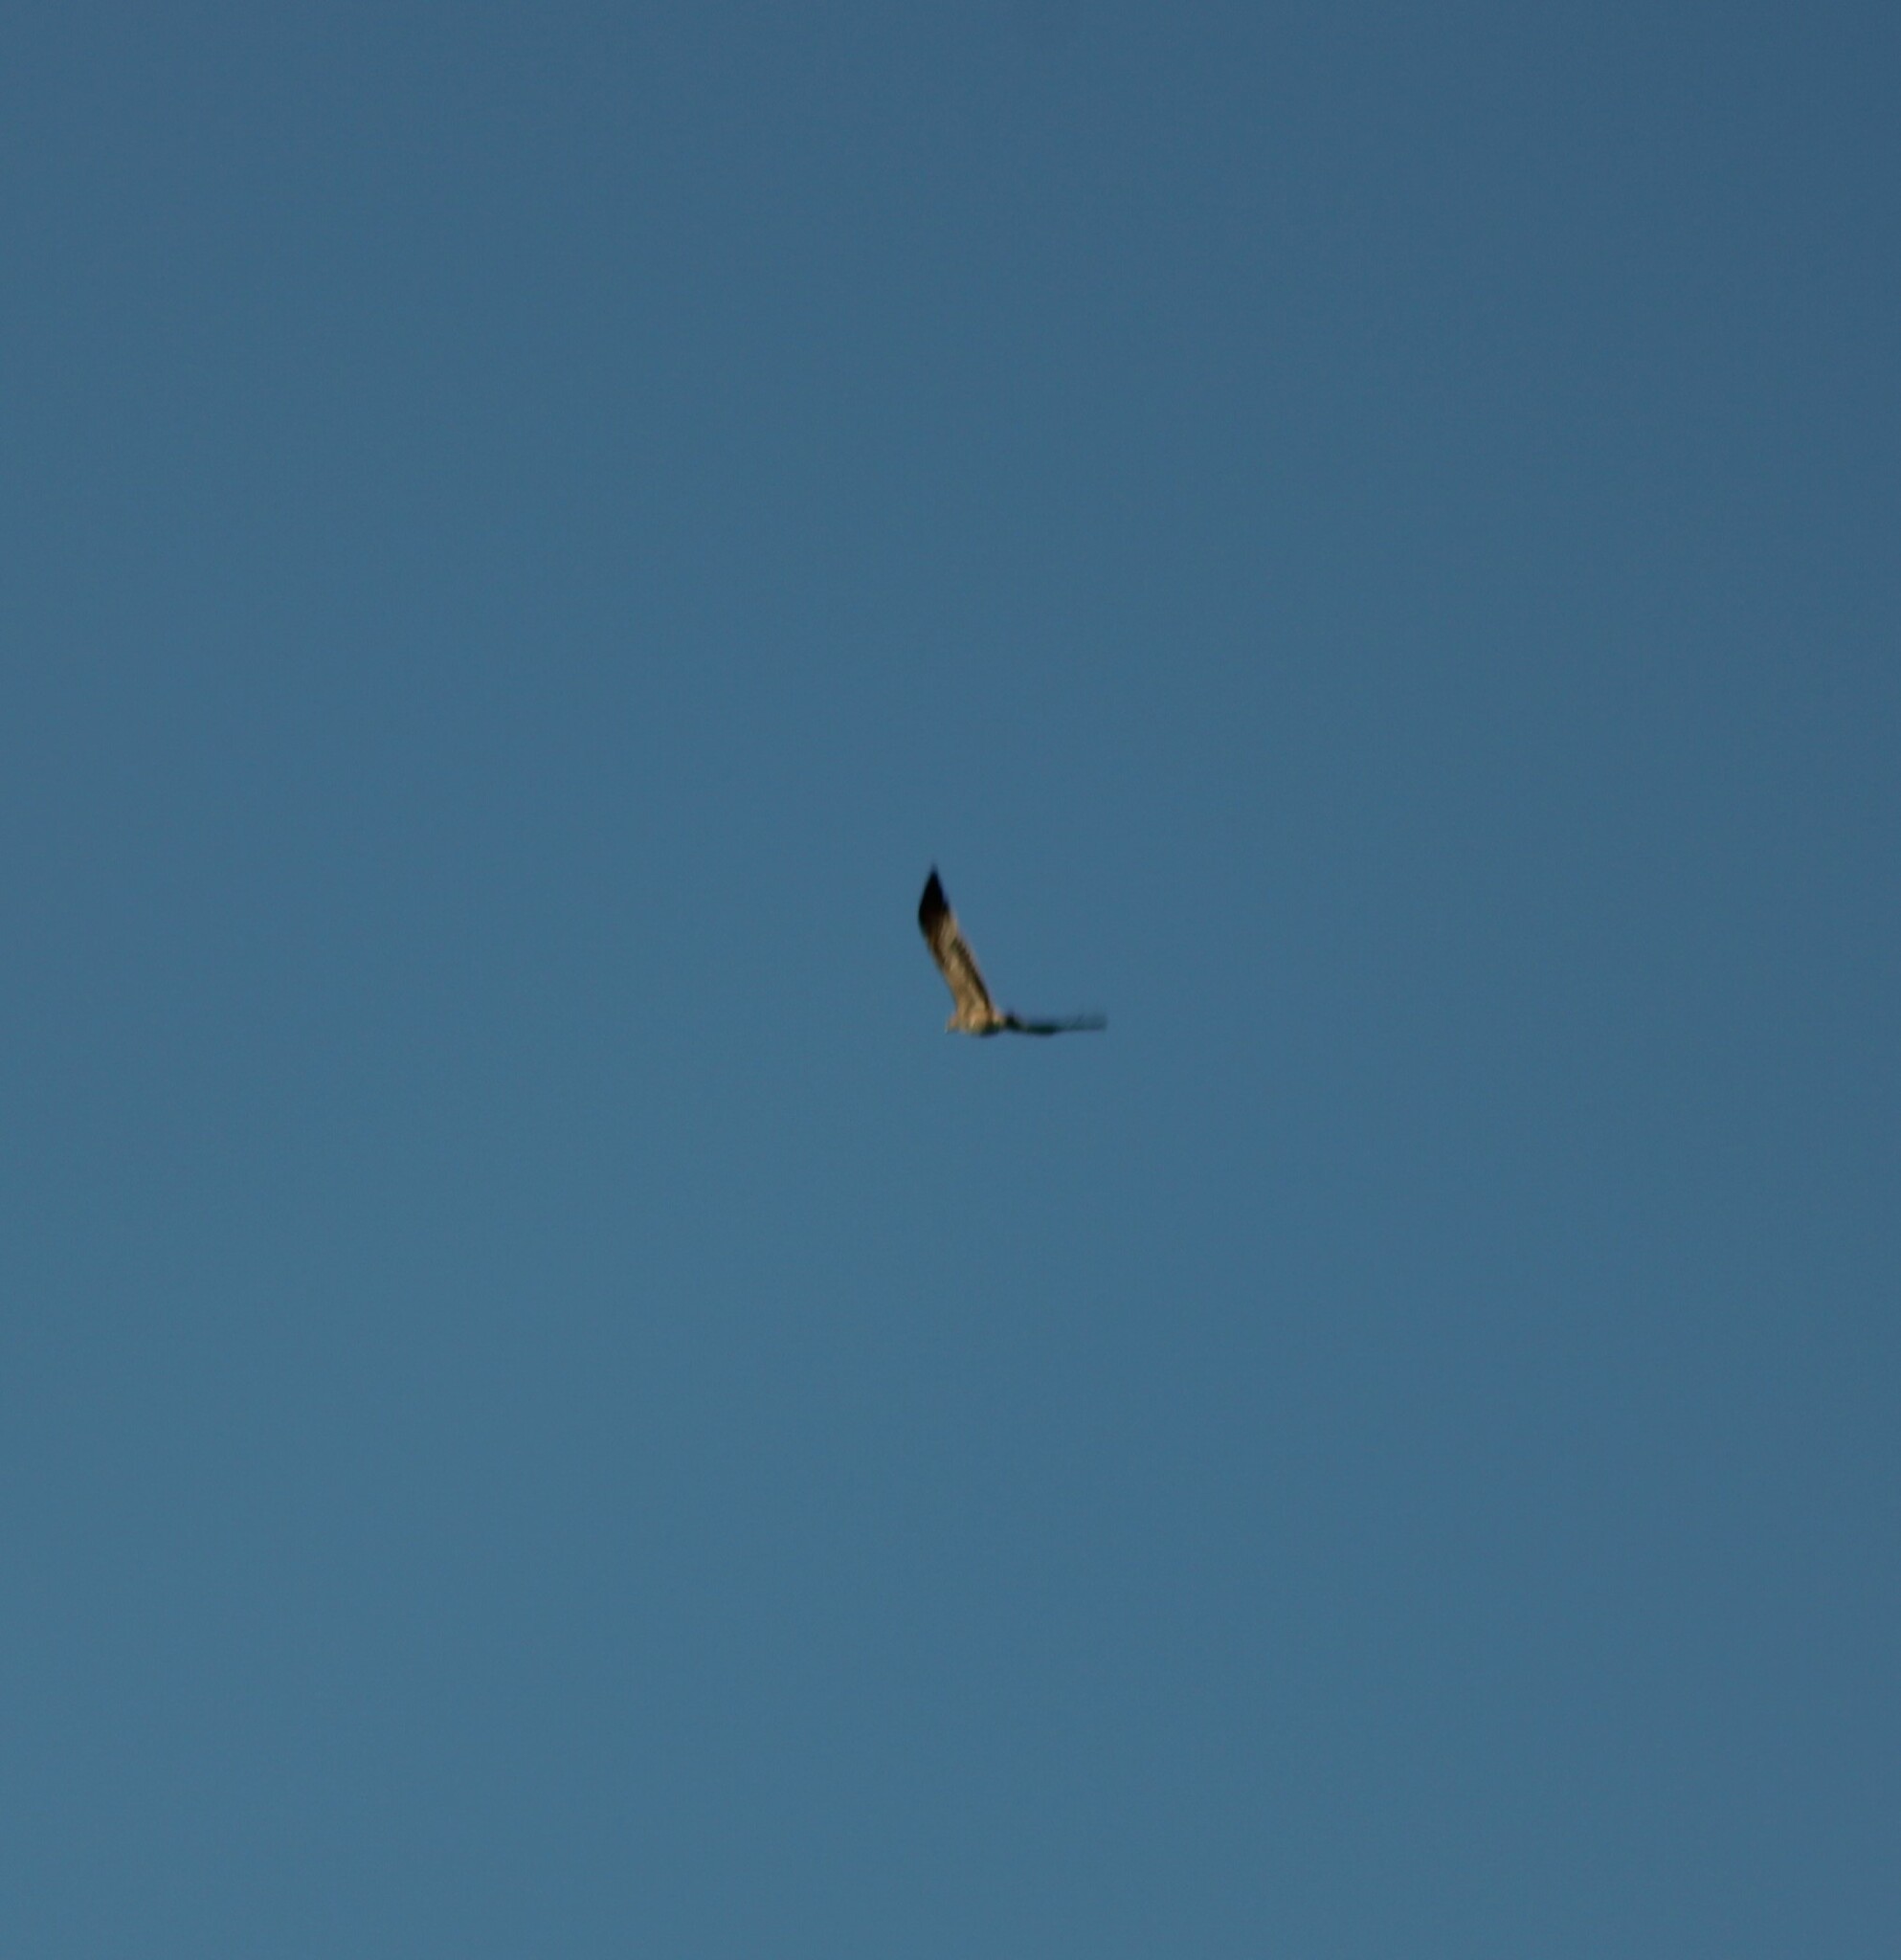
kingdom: Animalia
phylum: Chordata
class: Aves
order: Accipitriformes
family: Accipitridae
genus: Aquila
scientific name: Aquila heliaca
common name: Eastern imperial eagle
